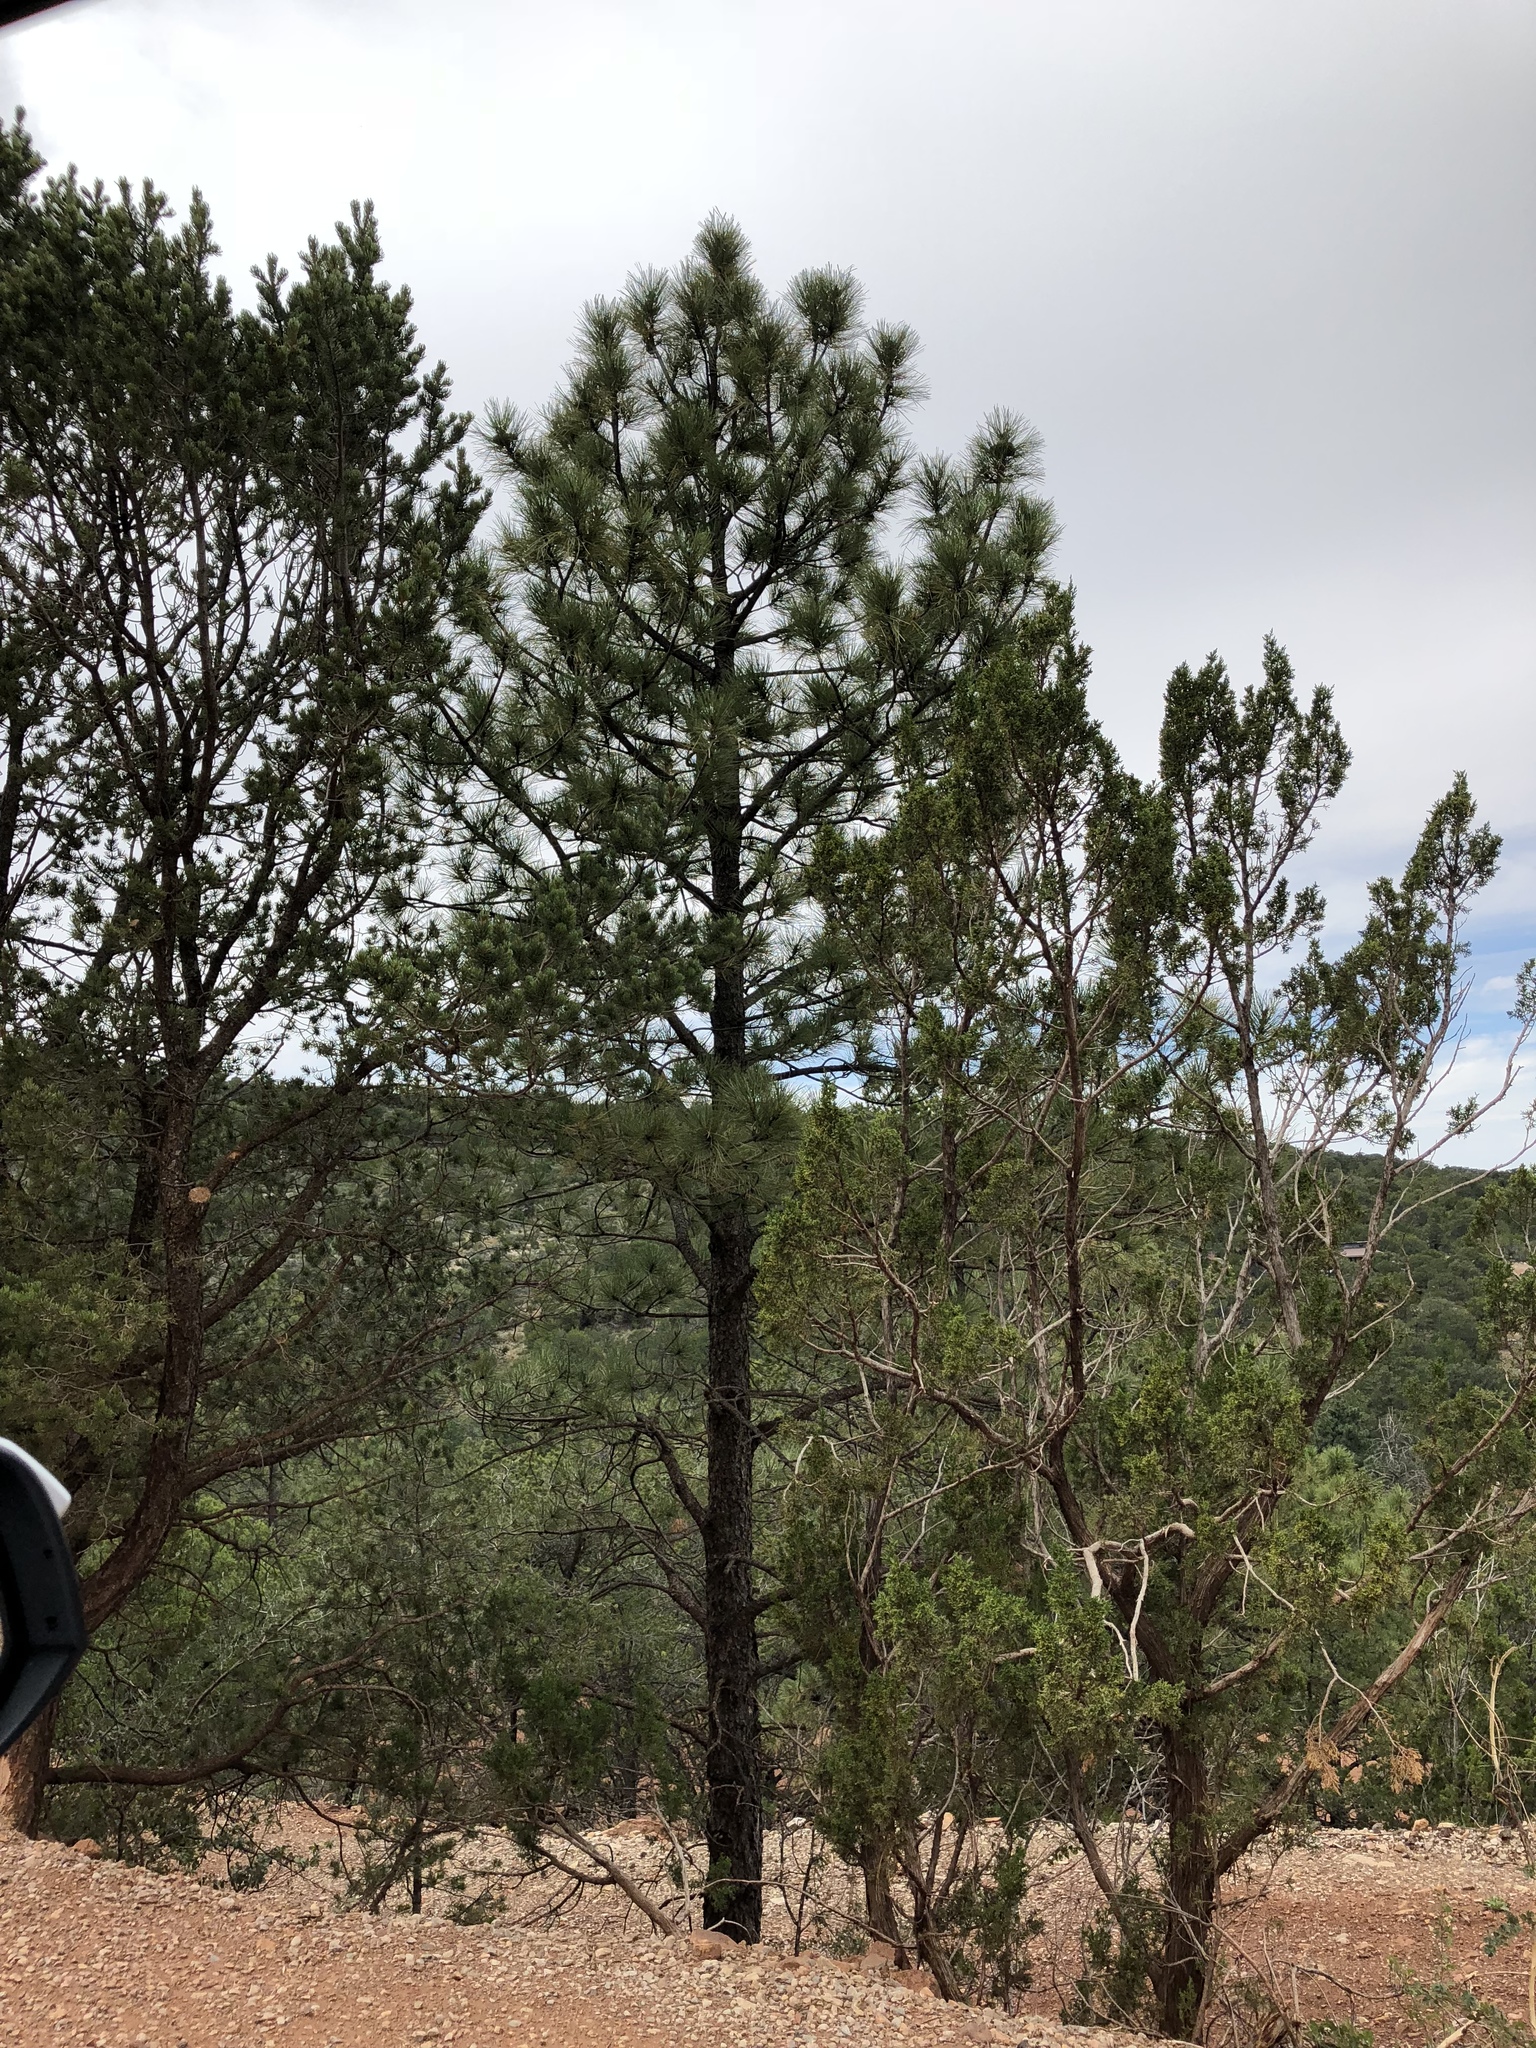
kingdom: Plantae
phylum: Tracheophyta
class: Pinopsida
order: Pinales
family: Pinaceae
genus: Pinus
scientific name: Pinus ponderosa
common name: Western yellow-pine
